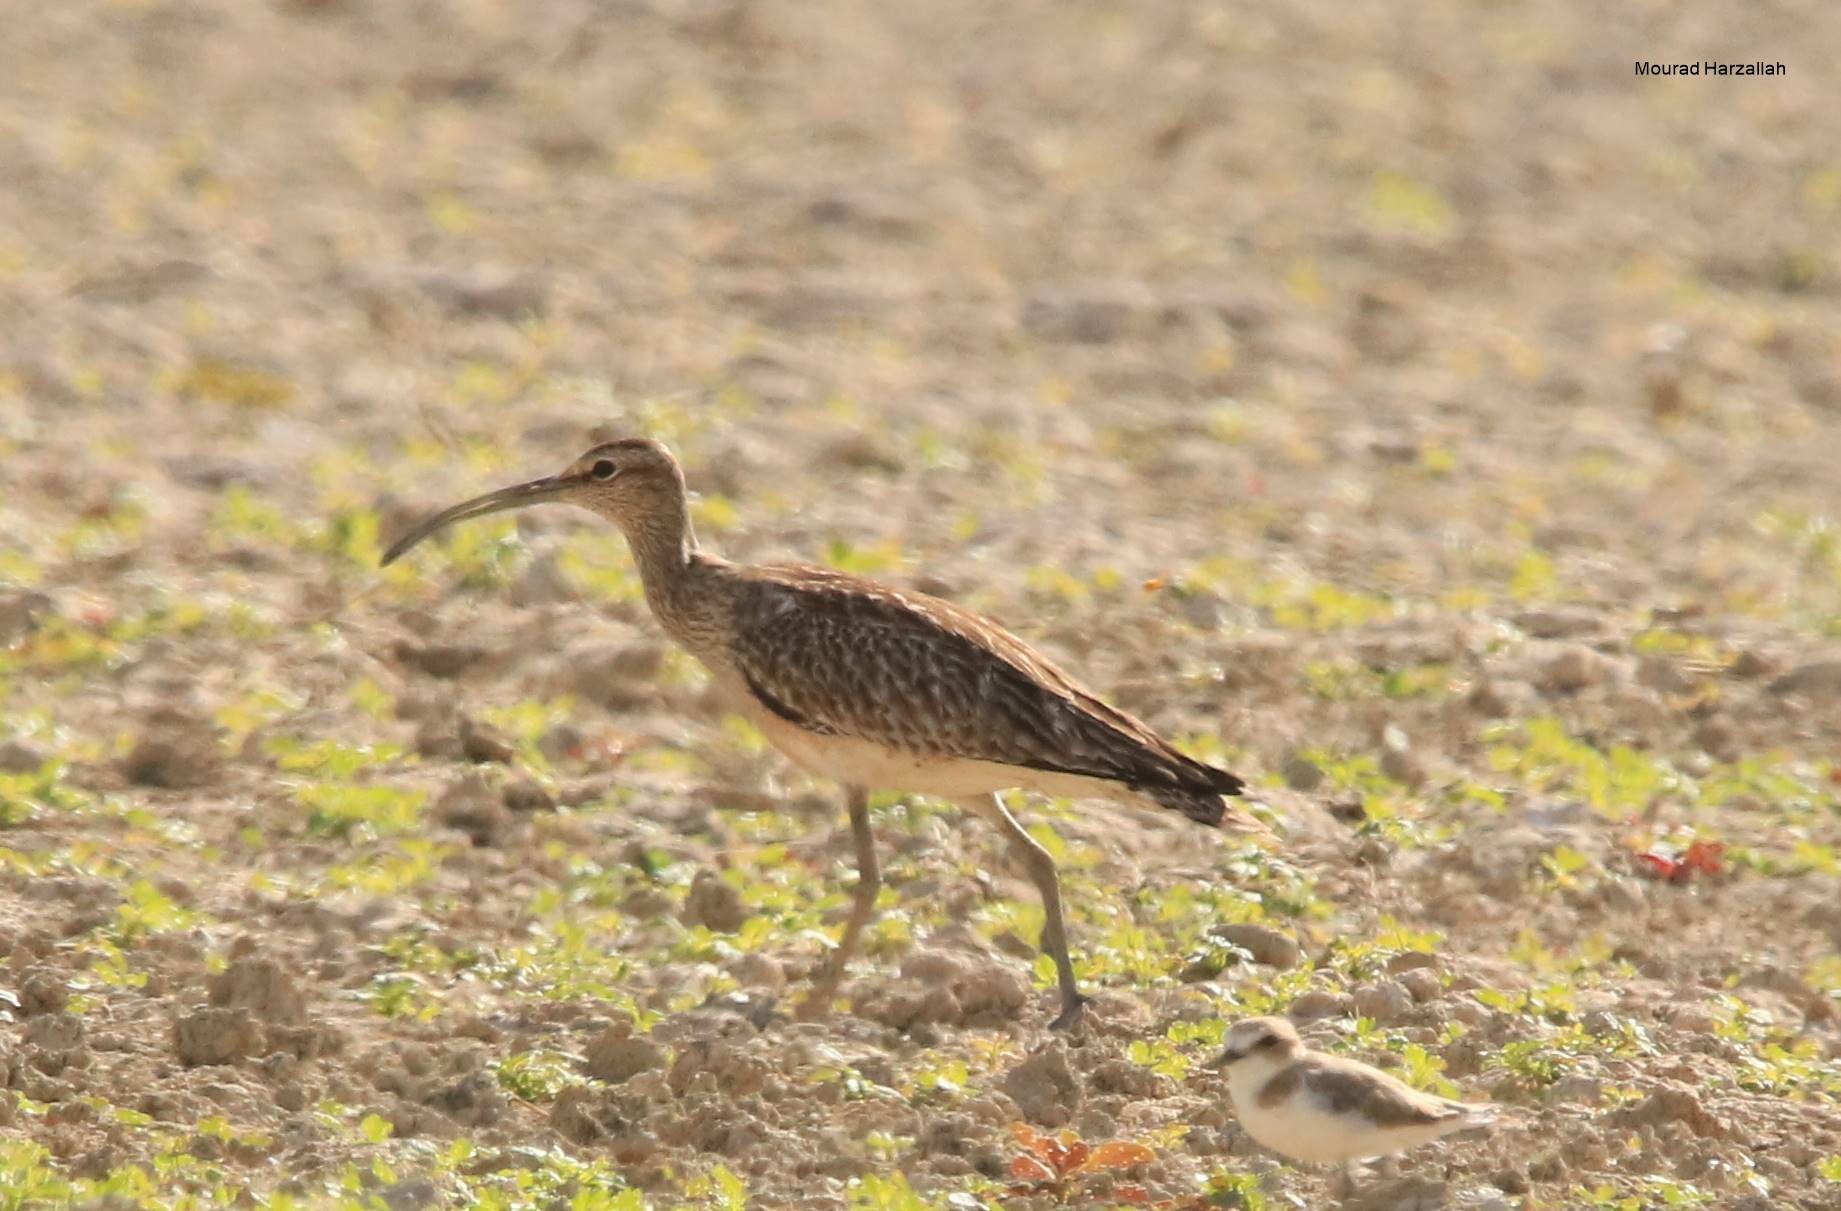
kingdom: Animalia
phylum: Chordata
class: Aves
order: Charadriiformes
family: Scolopacidae
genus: Numenius
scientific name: Numenius phaeopus
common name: Whimbrel
